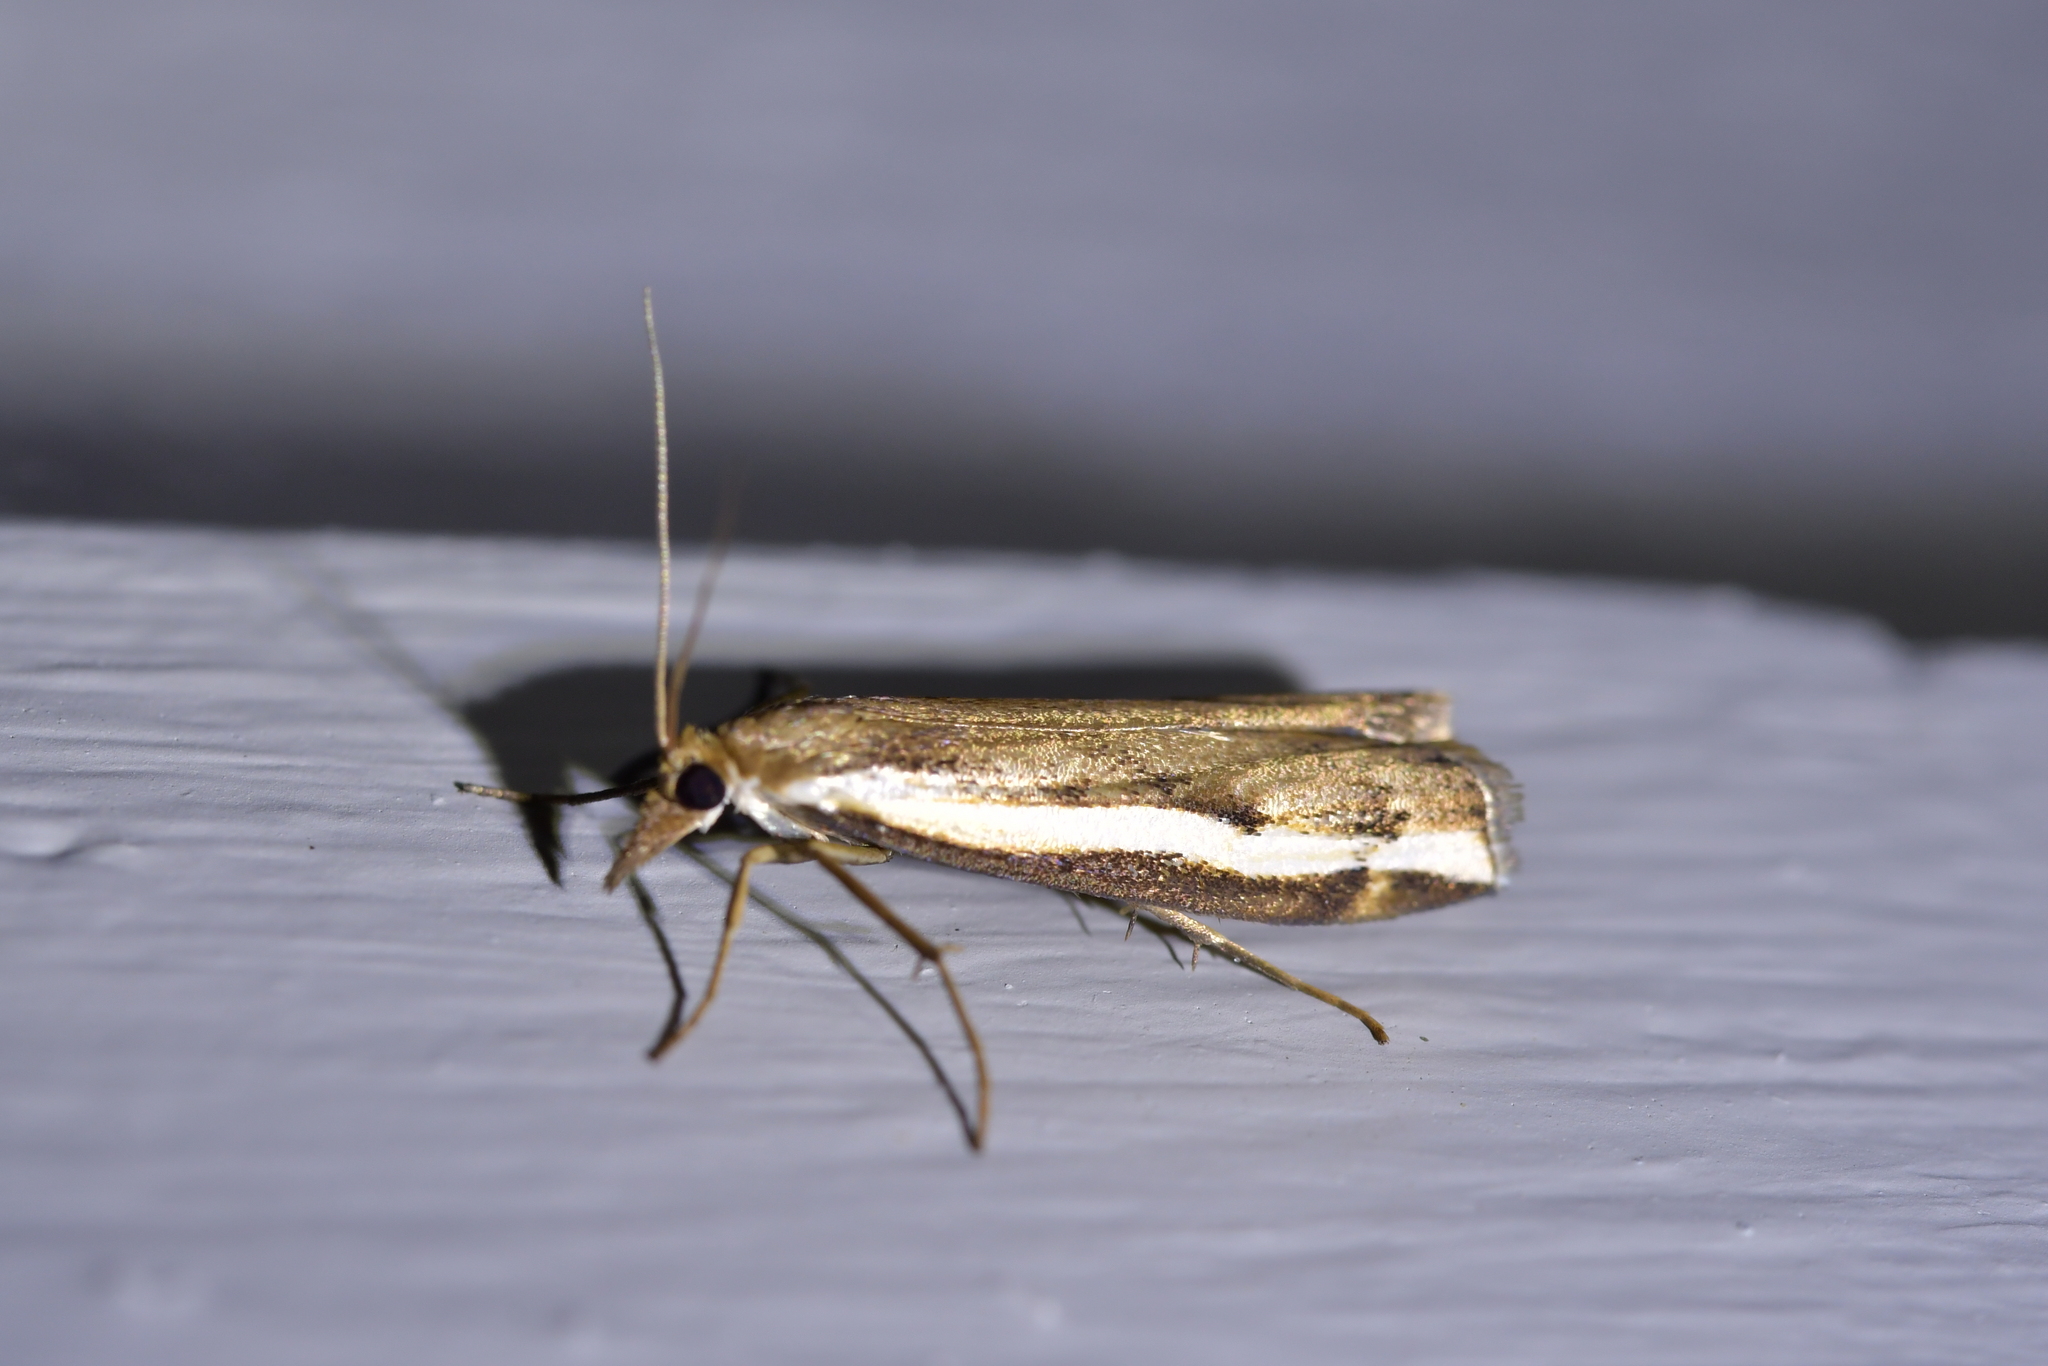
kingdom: Animalia
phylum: Arthropoda
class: Insecta
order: Lepidoptera
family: Crambidae
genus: Orocrambus
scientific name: Orocrambus flexuosellus
